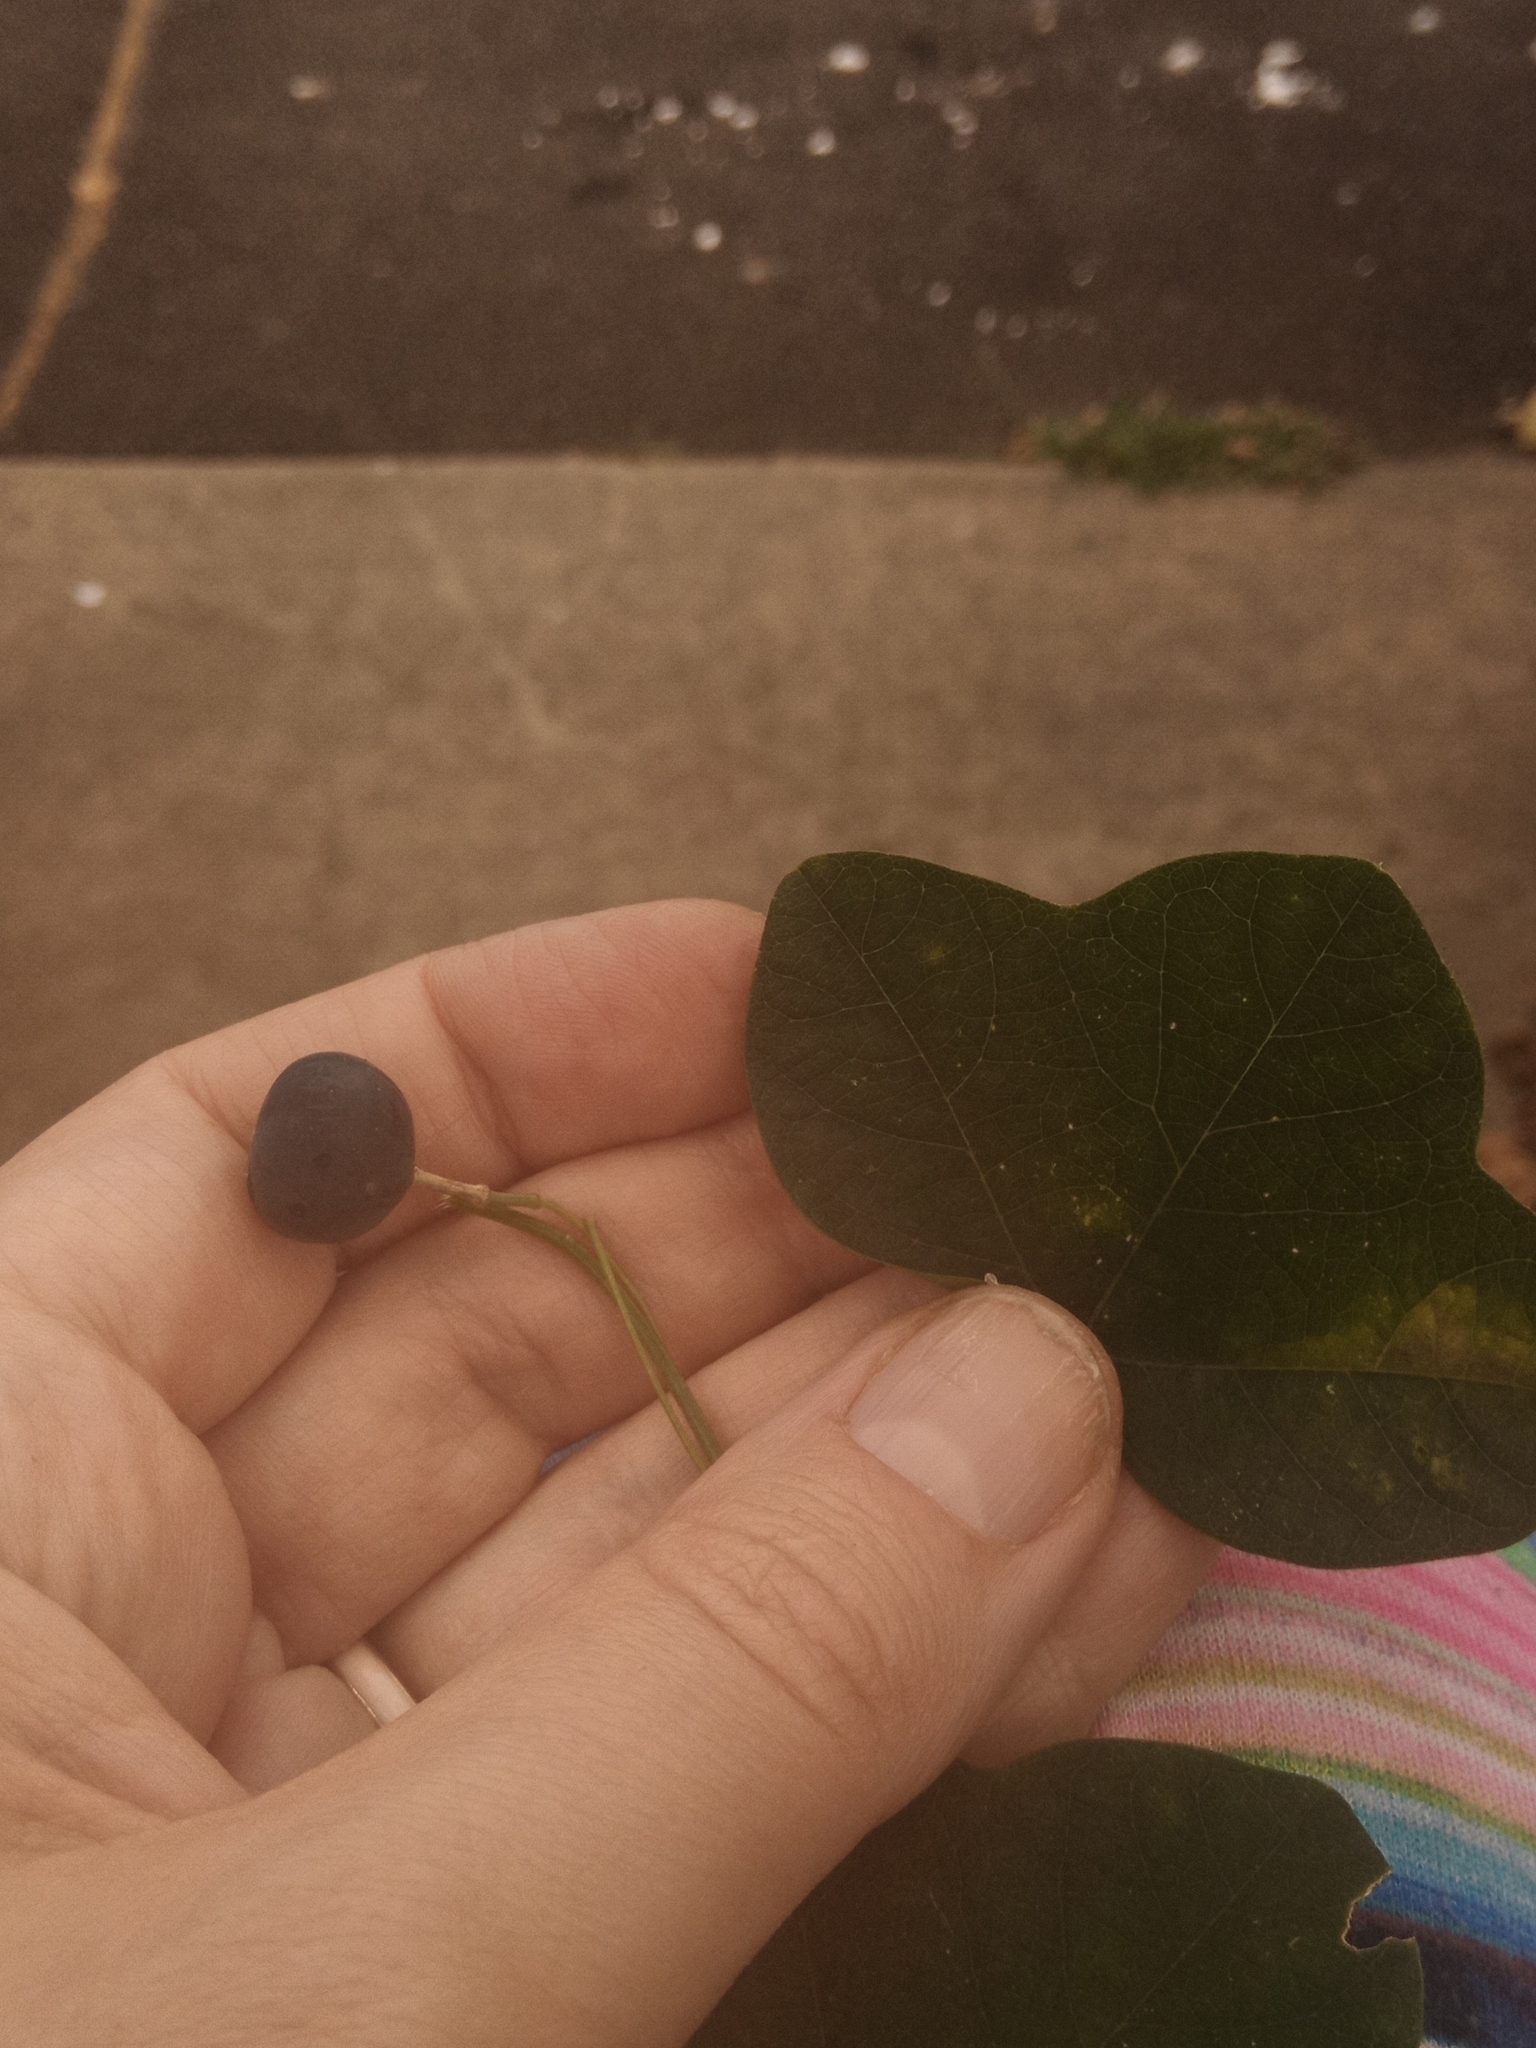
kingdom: Plantae
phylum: Tracheophyta
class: Magnoliopsida
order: Malpighiales
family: Passifloraceae
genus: Passiflora
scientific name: Passiflora lutea
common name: Yellow passionflower
